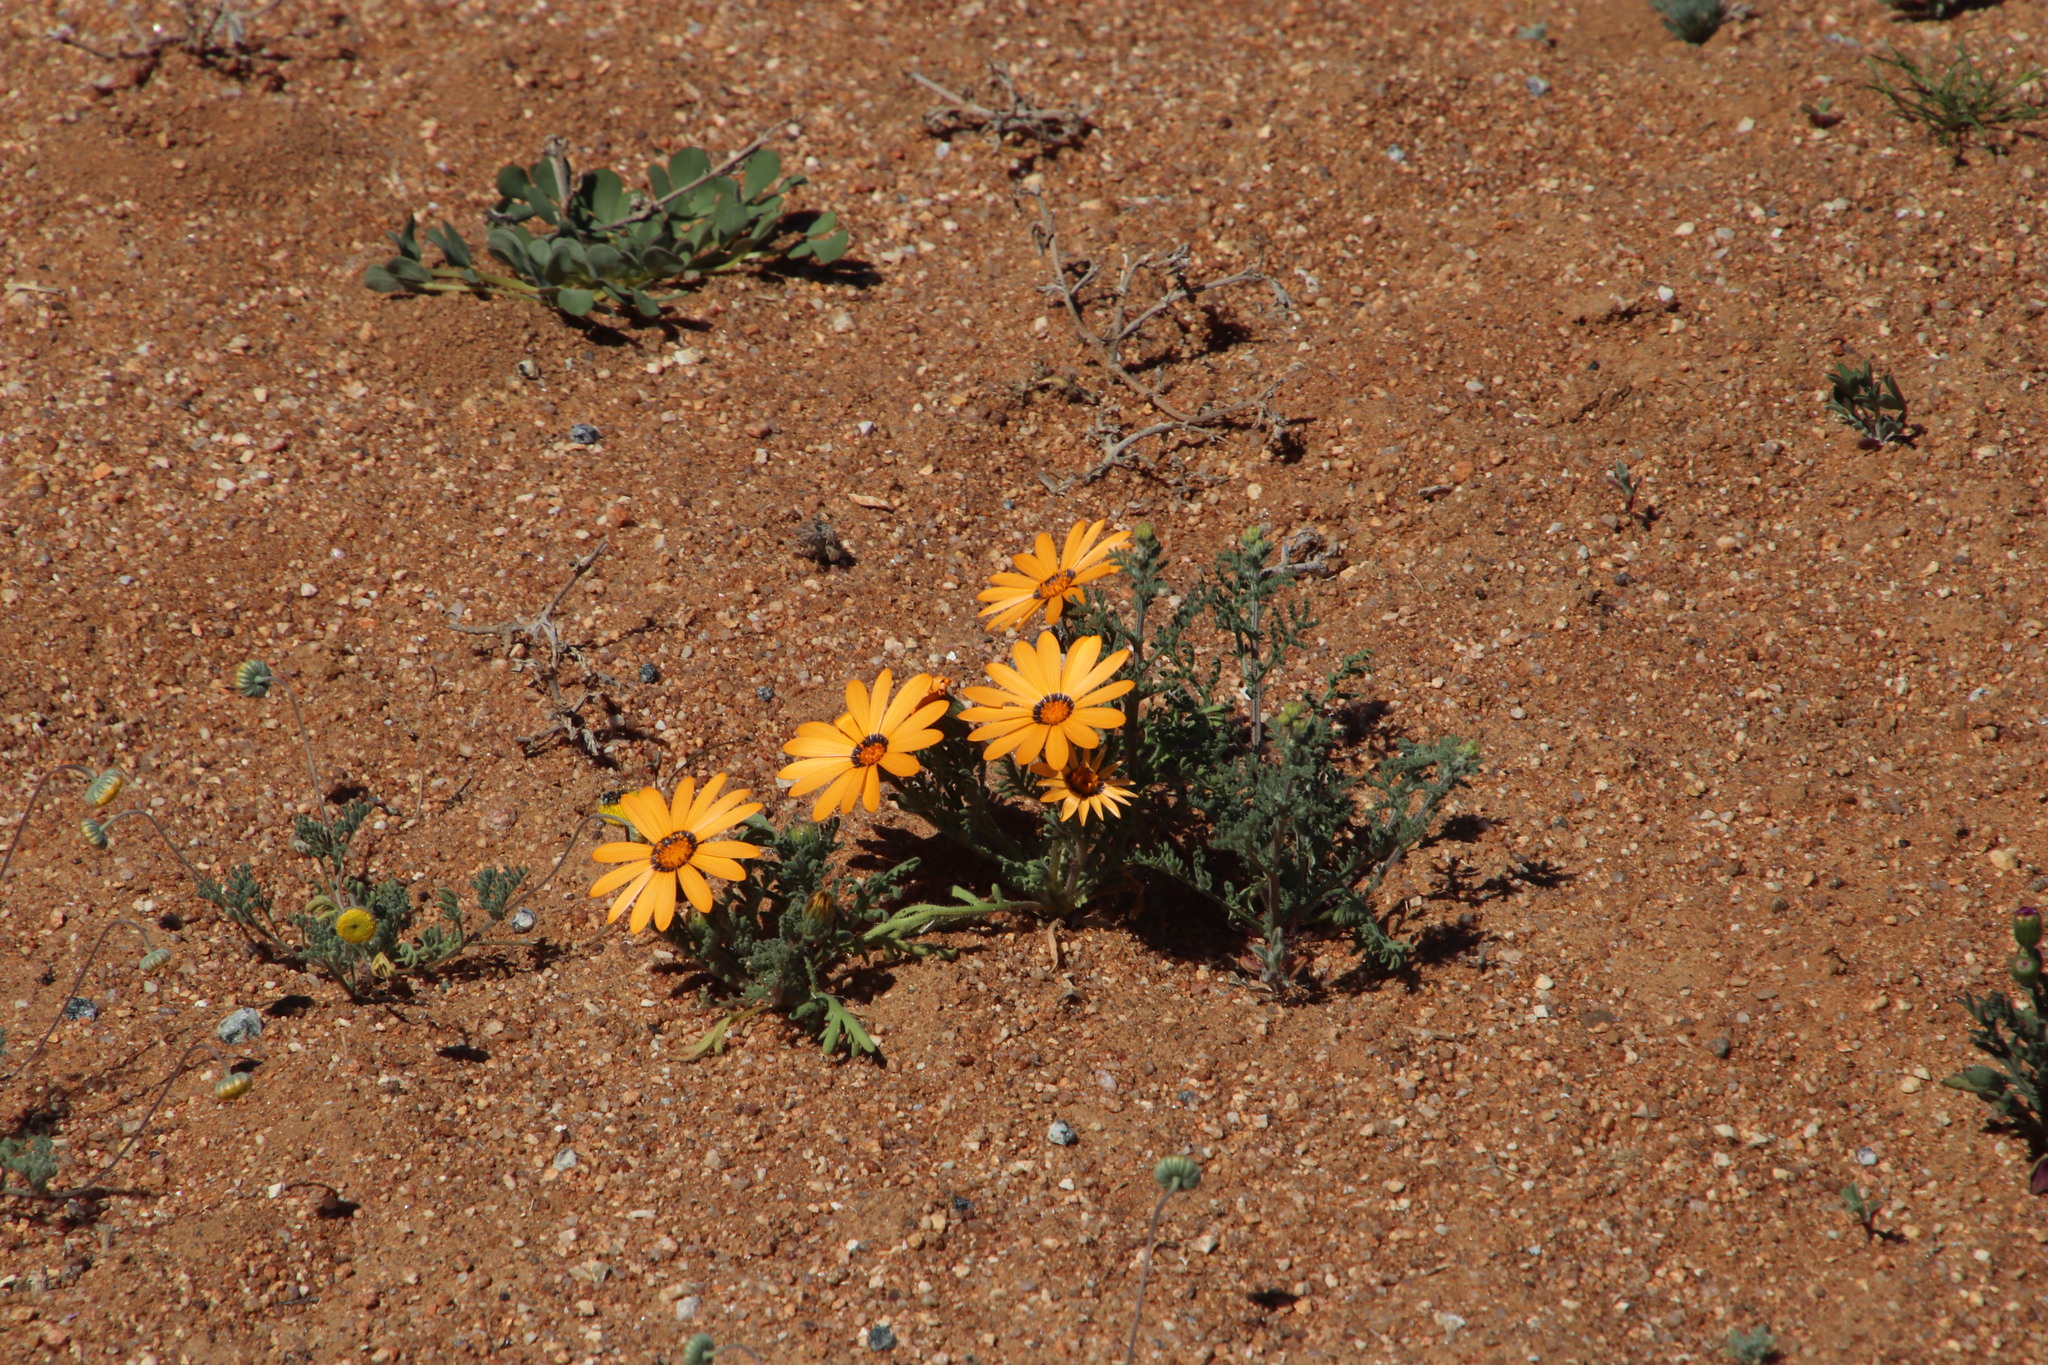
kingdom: Plantae
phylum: Tracheophyta
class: Magnoliopsida
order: Asterales
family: Asteraceae
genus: Dimorphotheca
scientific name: Dimorphotheca pinnata
